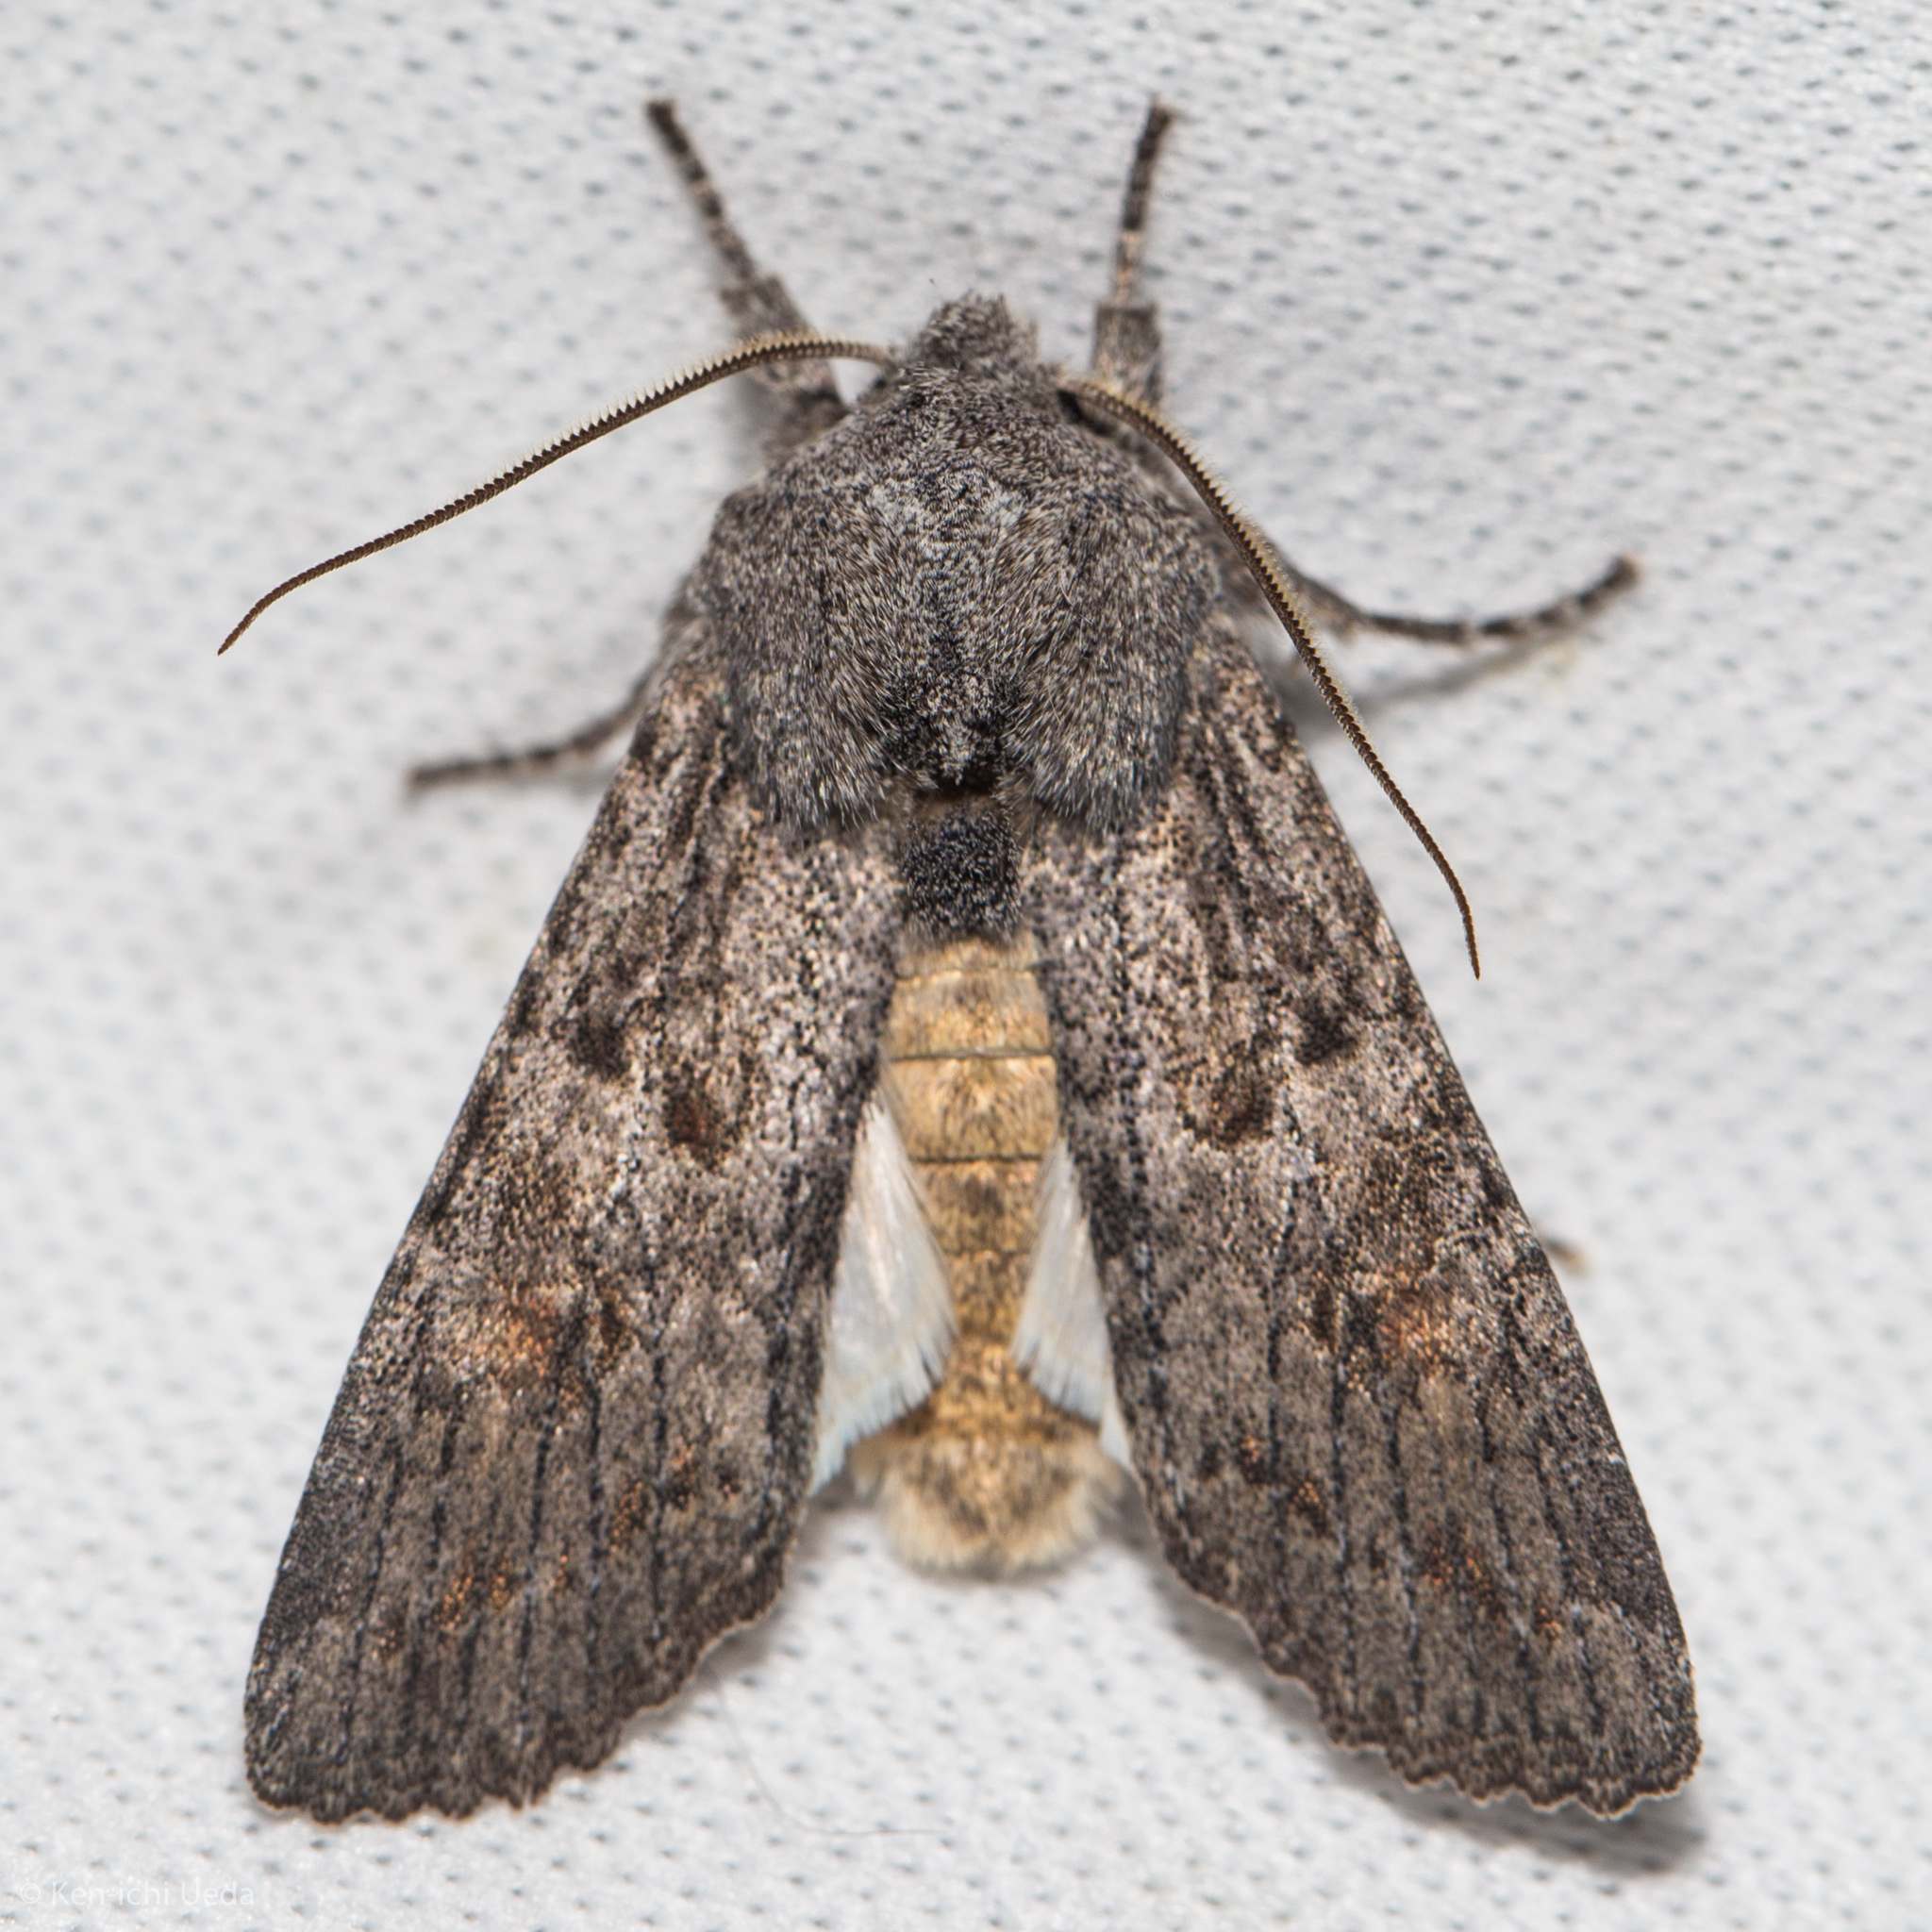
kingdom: Animalia
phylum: Arthropoda
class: Insecta
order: Lepidoptera
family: Noctuidae
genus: Egira
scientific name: Egira curialis
